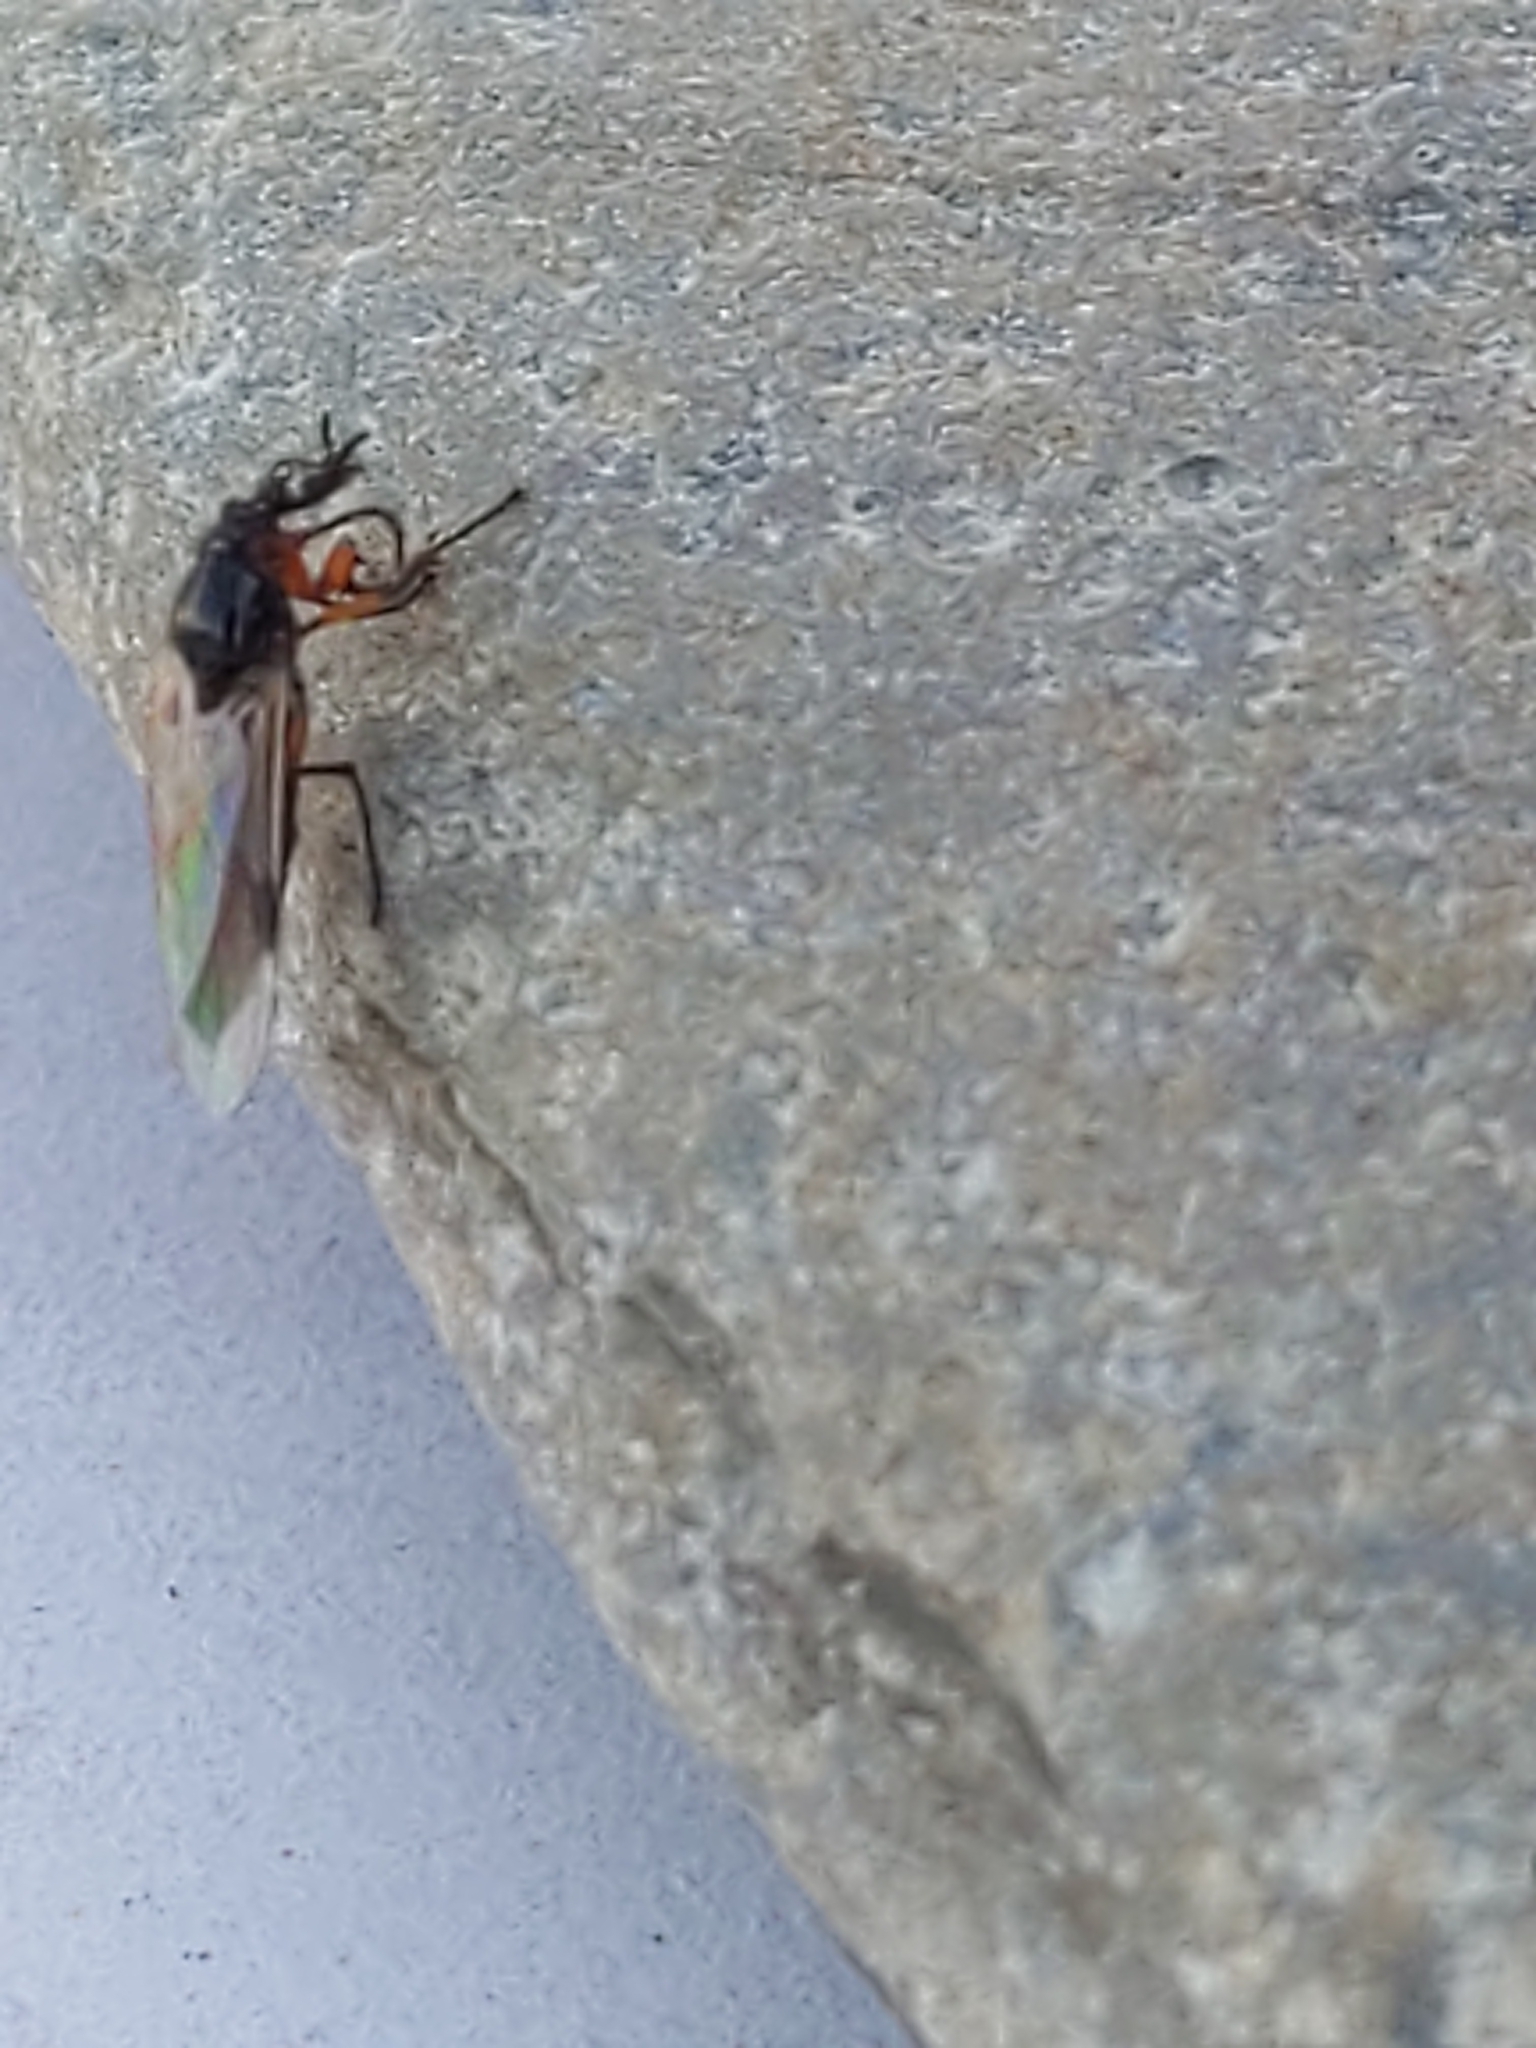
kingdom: Animalia
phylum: Arthropoda
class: Insecta
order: Diptera
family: Bibionidae
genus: Bibio
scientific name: Bibio
